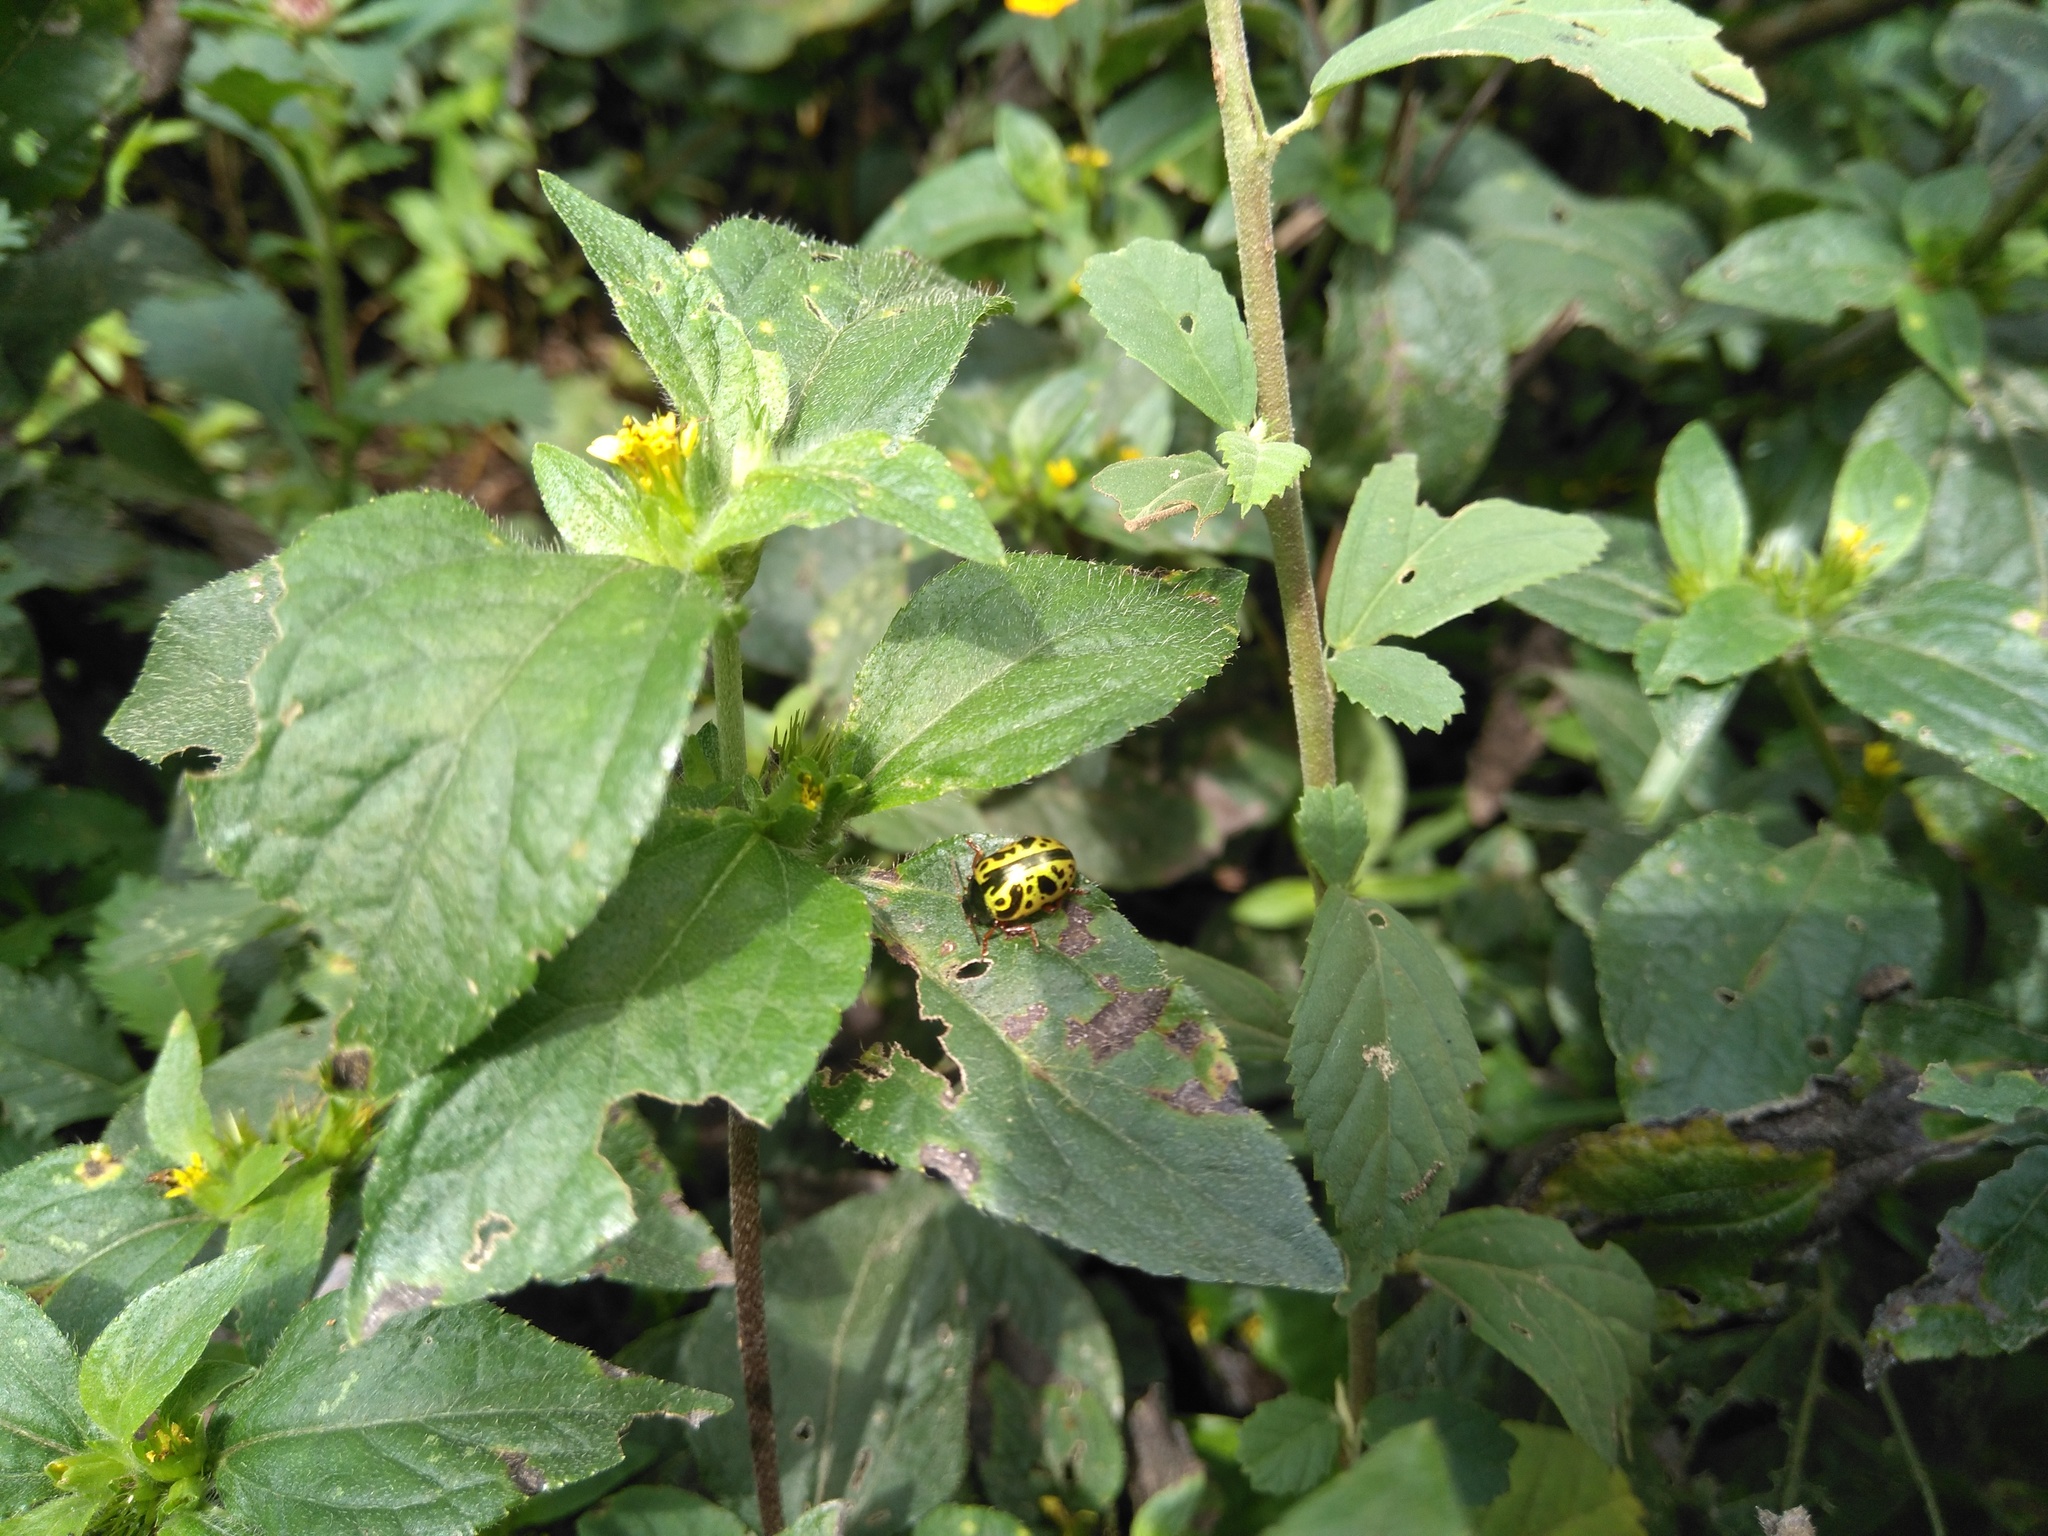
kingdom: Animalia
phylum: Arthropoda
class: Insecta
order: Coleoptera
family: Chrysomelidae
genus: Calligrapha
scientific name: Calligrapha fulvipes
